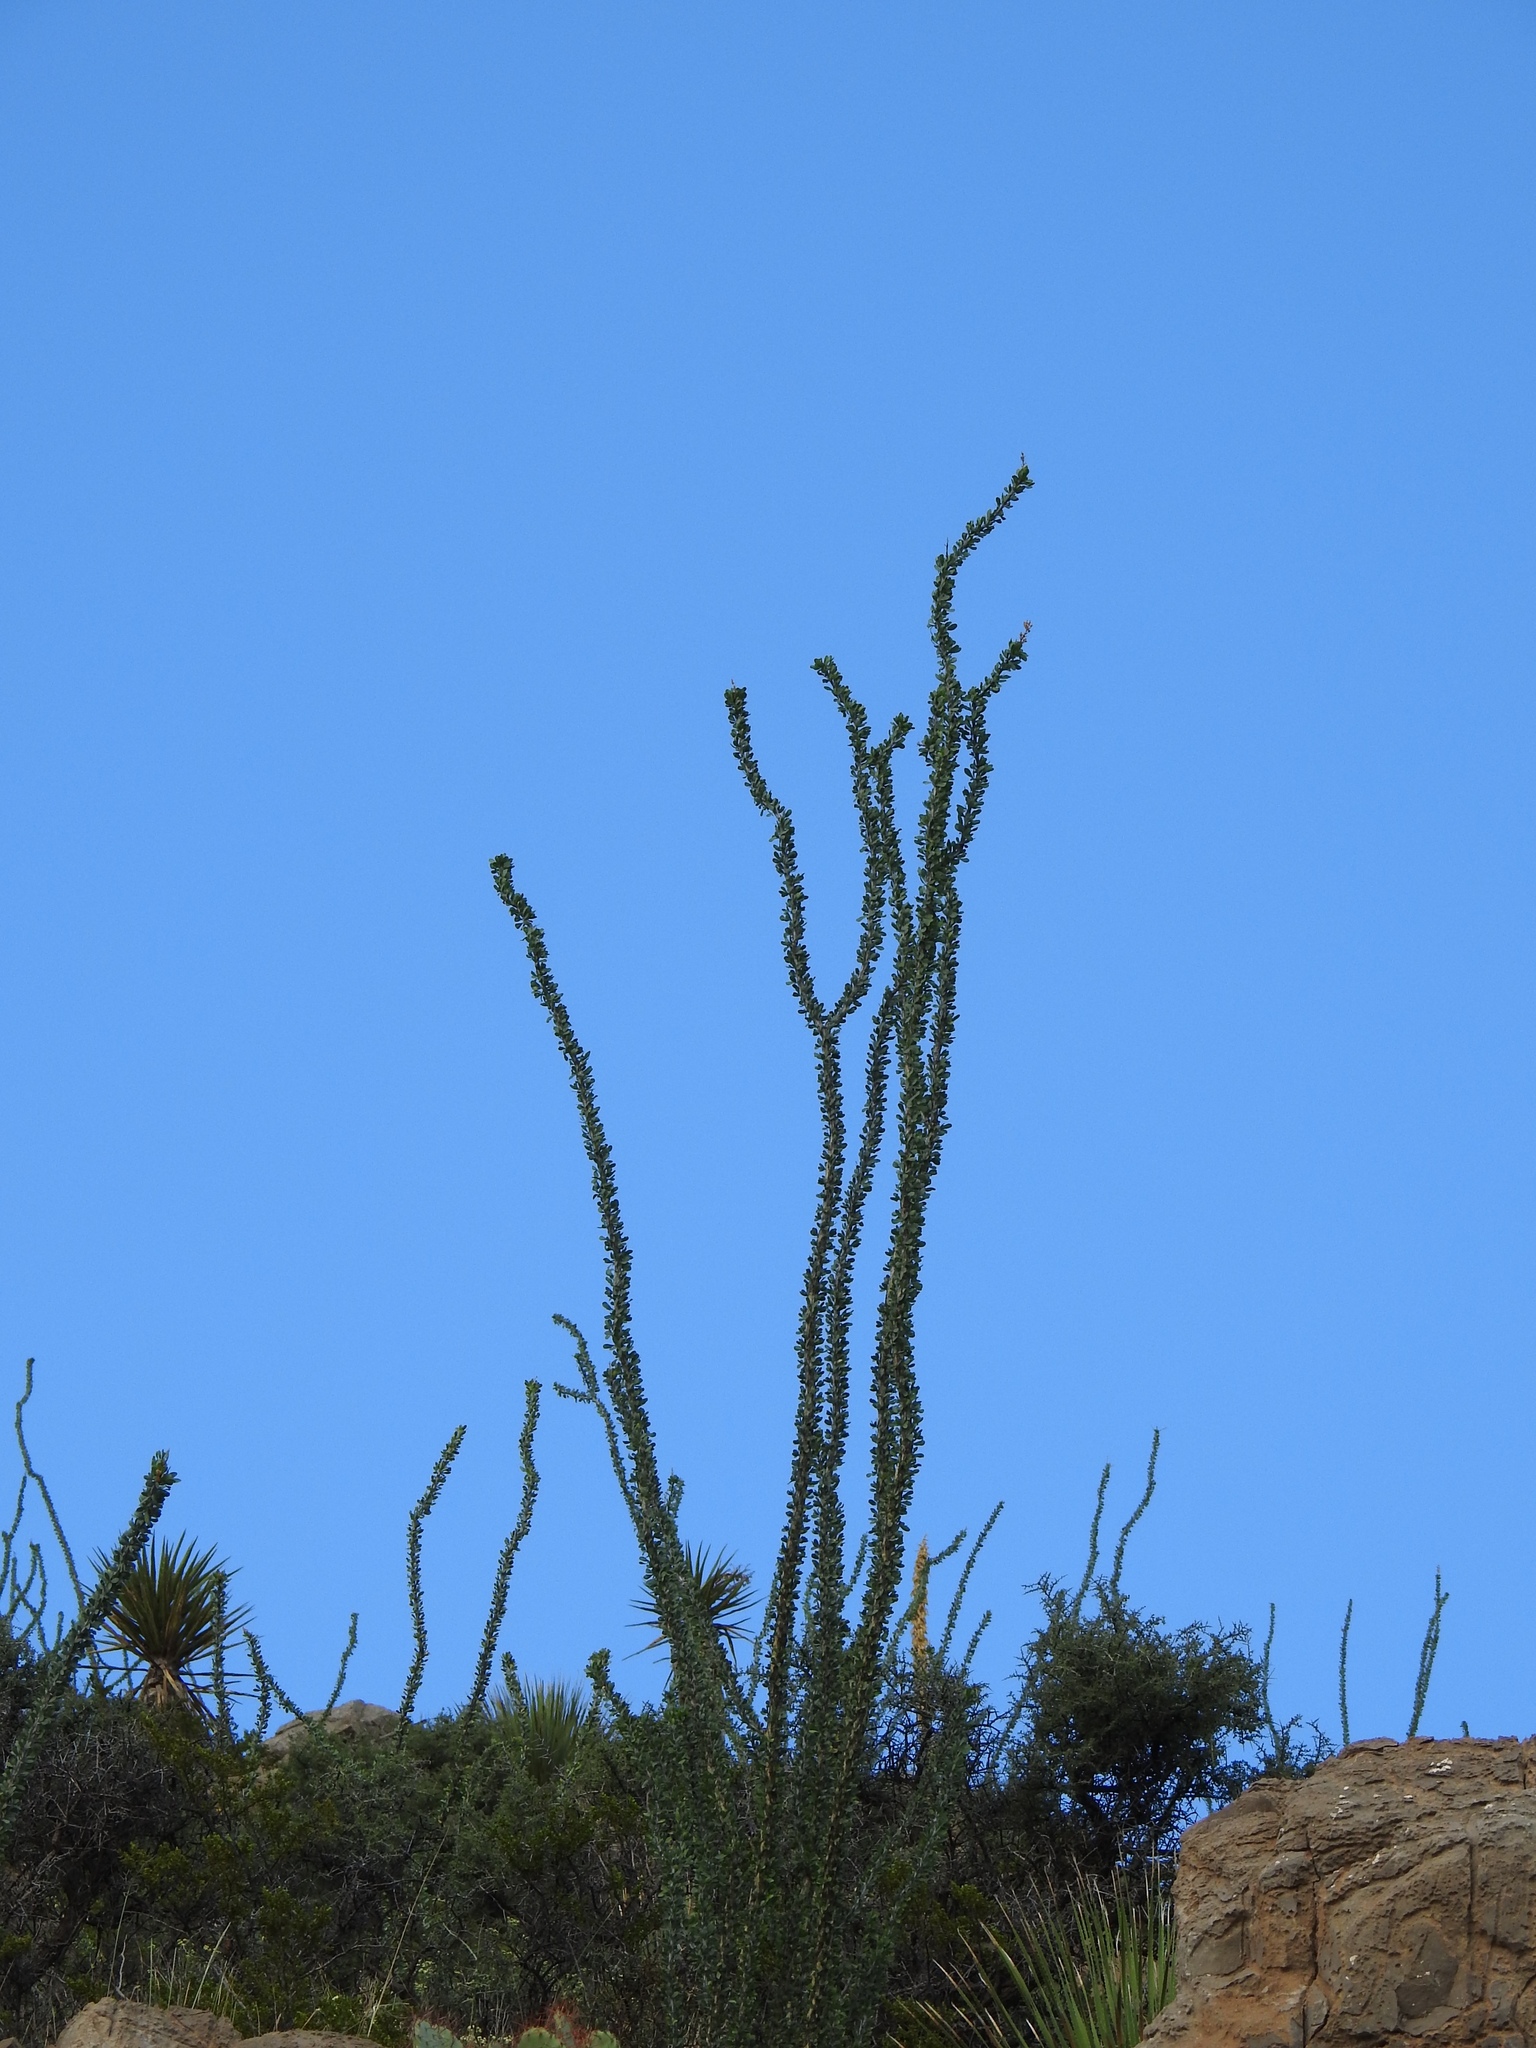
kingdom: Plantae
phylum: Tracheophyta
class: Magnoliopsida
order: Ericales
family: Fouquieriaceae
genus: Fouquieria
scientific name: Fouquieria splendens
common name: Vine-cactus
